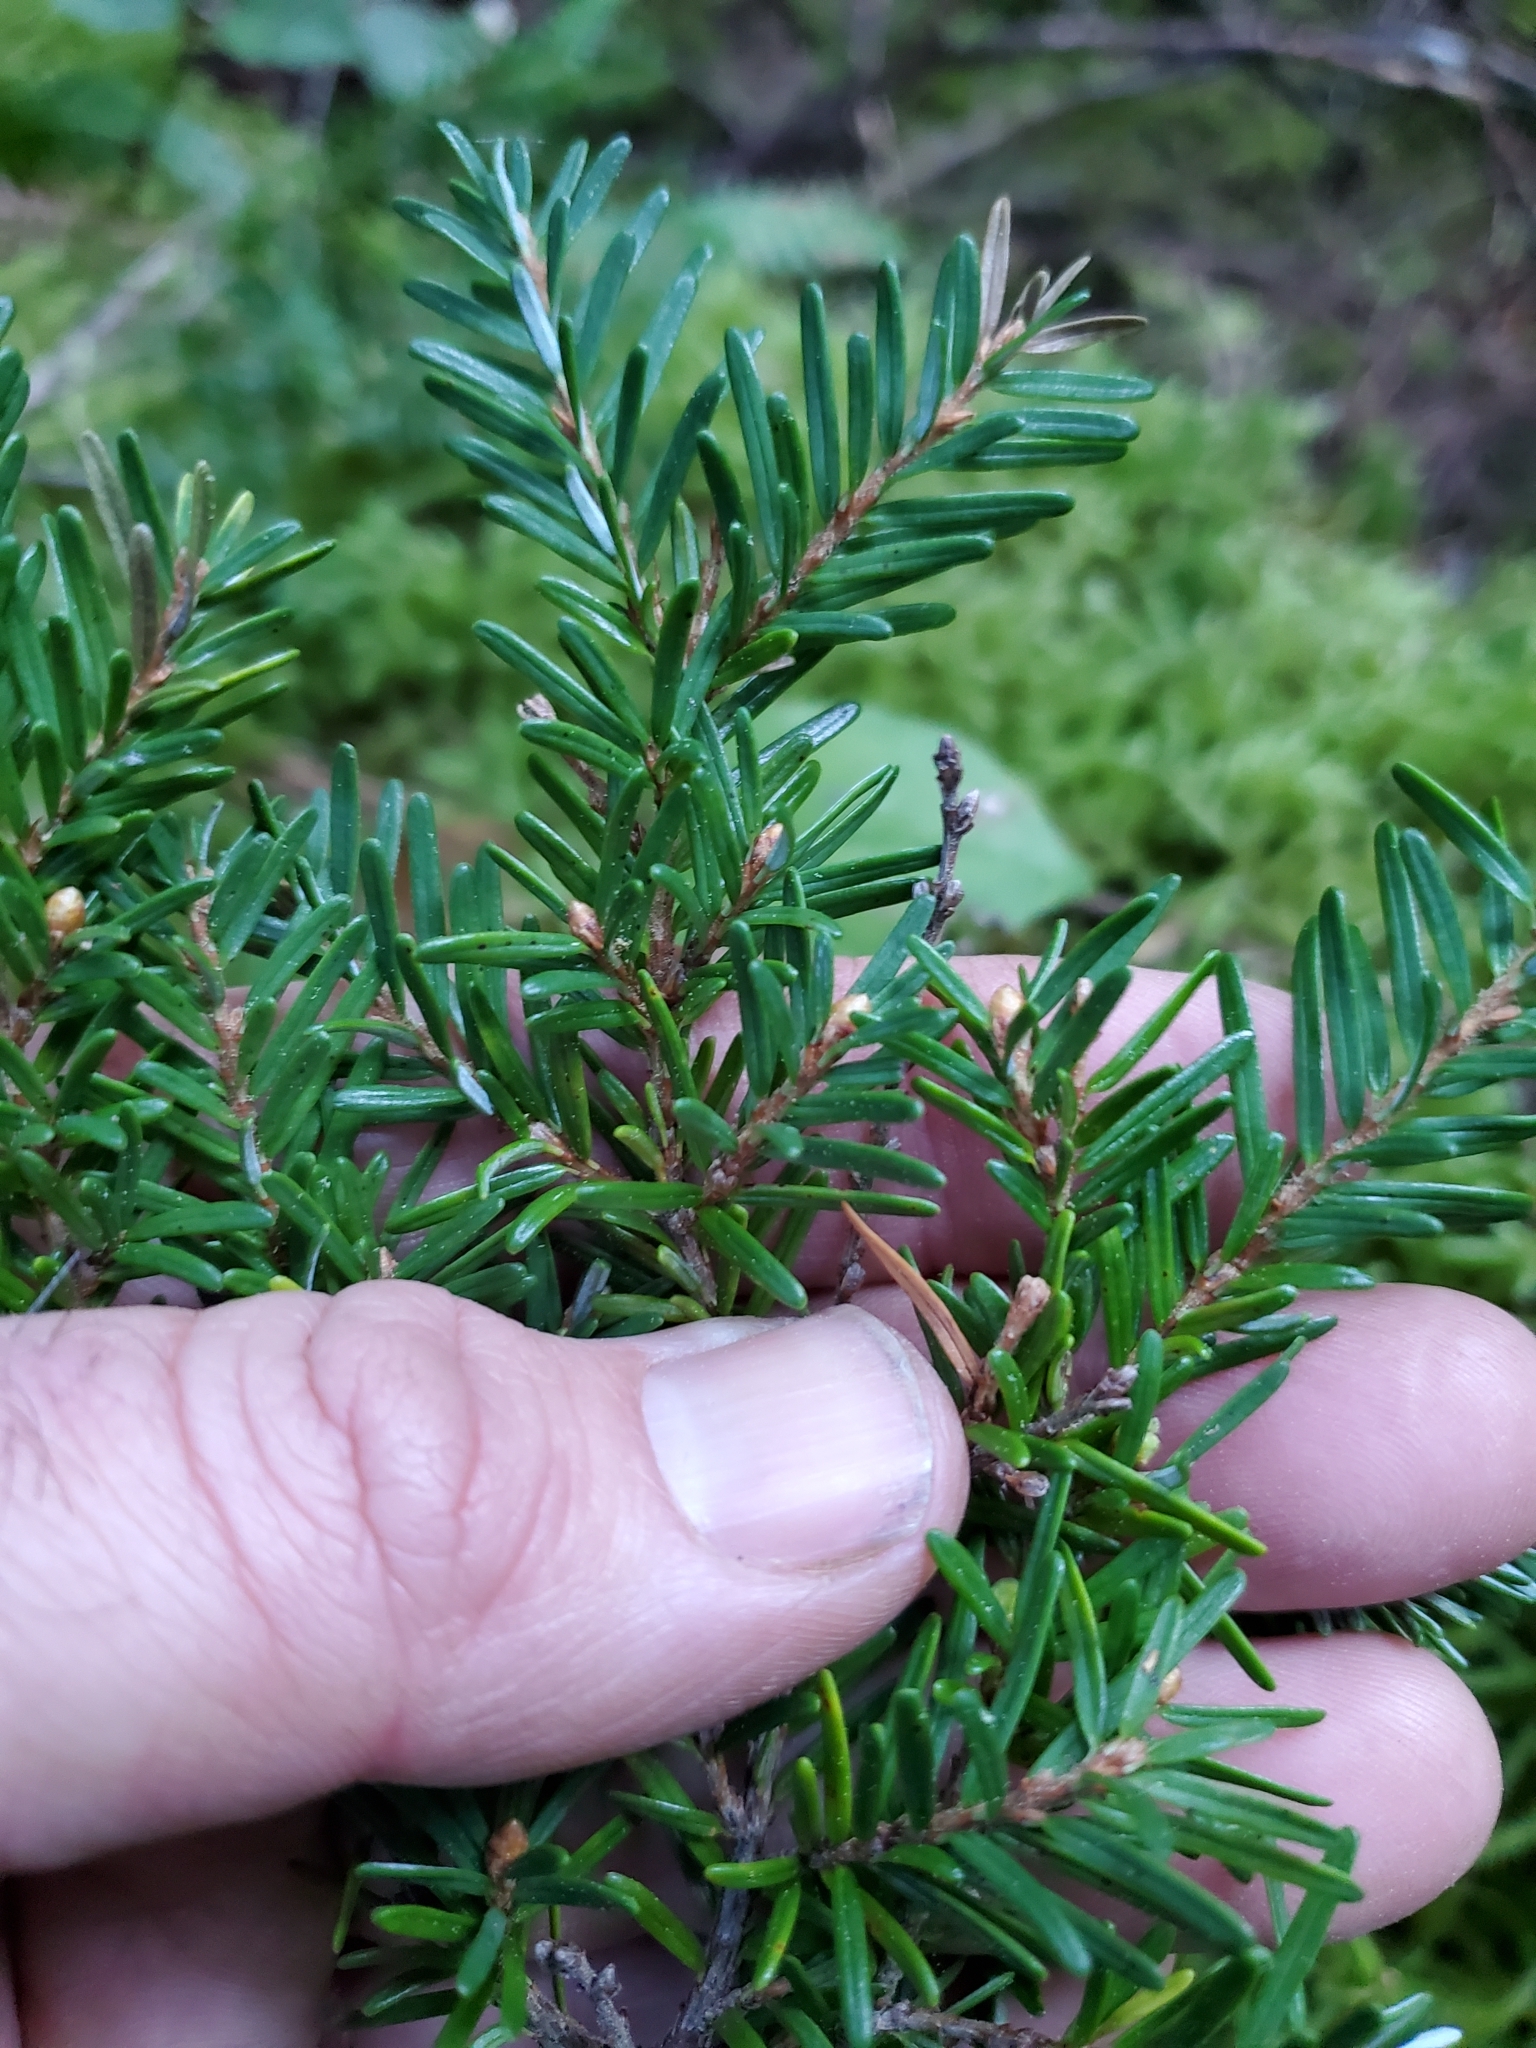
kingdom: Plantae
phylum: Tracheophyta
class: Pinopsida
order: Pinales
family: Pinaceae
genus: Tsuga
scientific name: Tsuga heterophylla
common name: Western hemlock
